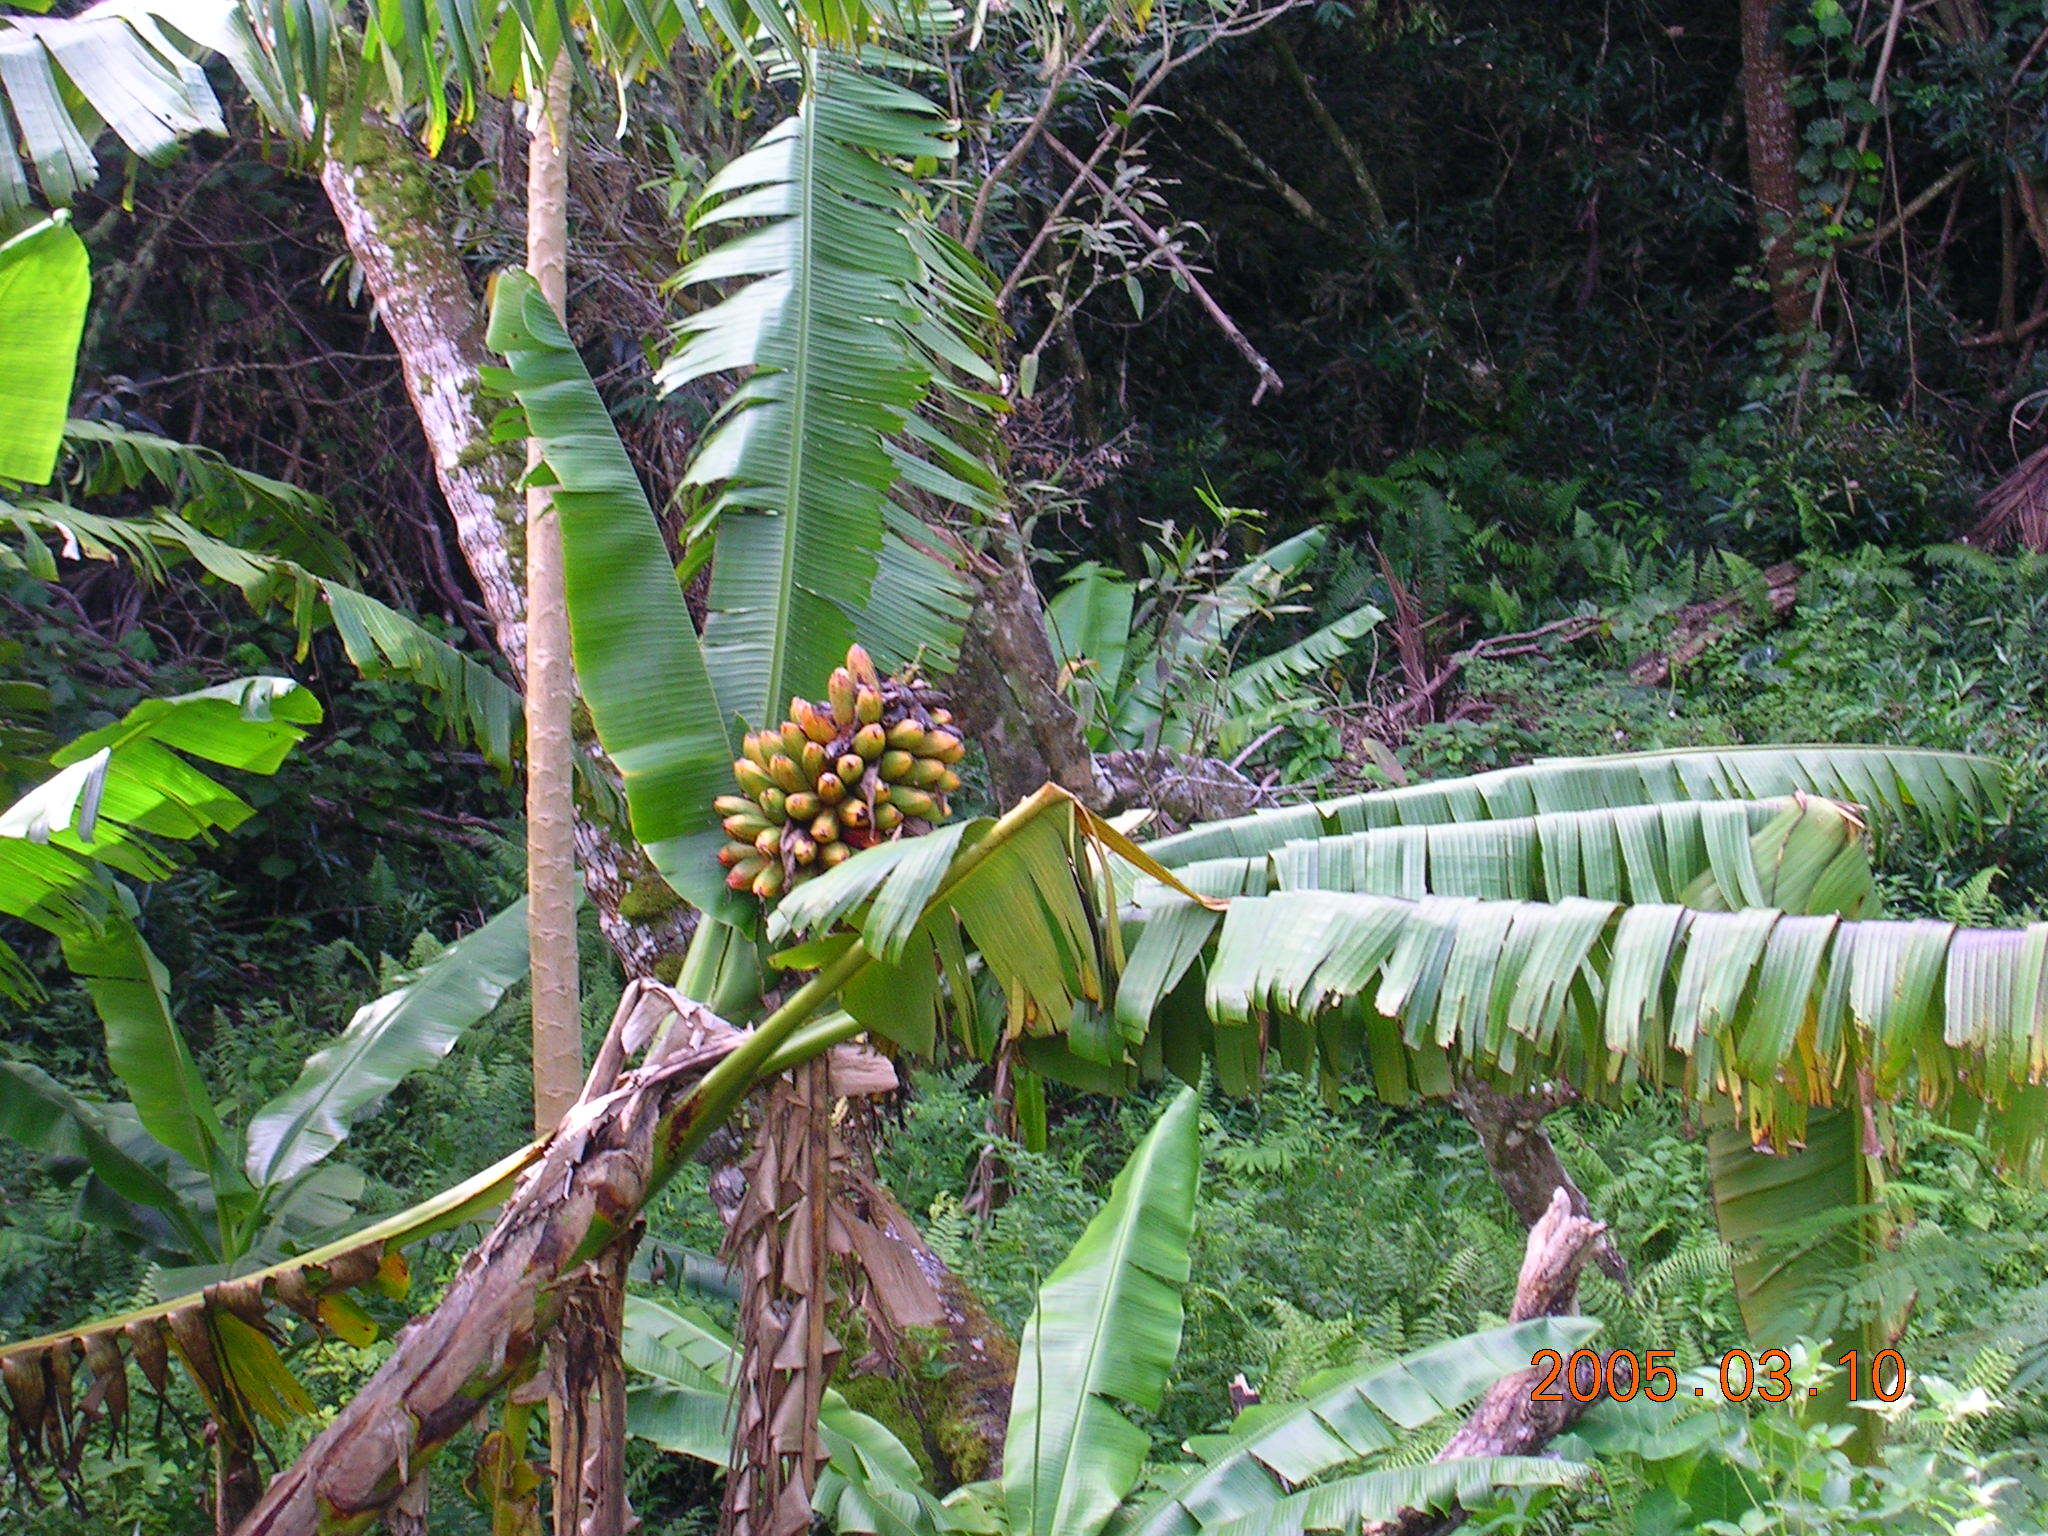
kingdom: Plantae
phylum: Tracheophyta
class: Liliopsida
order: Zingiberales
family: Musaceae
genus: Musa
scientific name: Musa troglodytarum
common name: Fe'i banana
